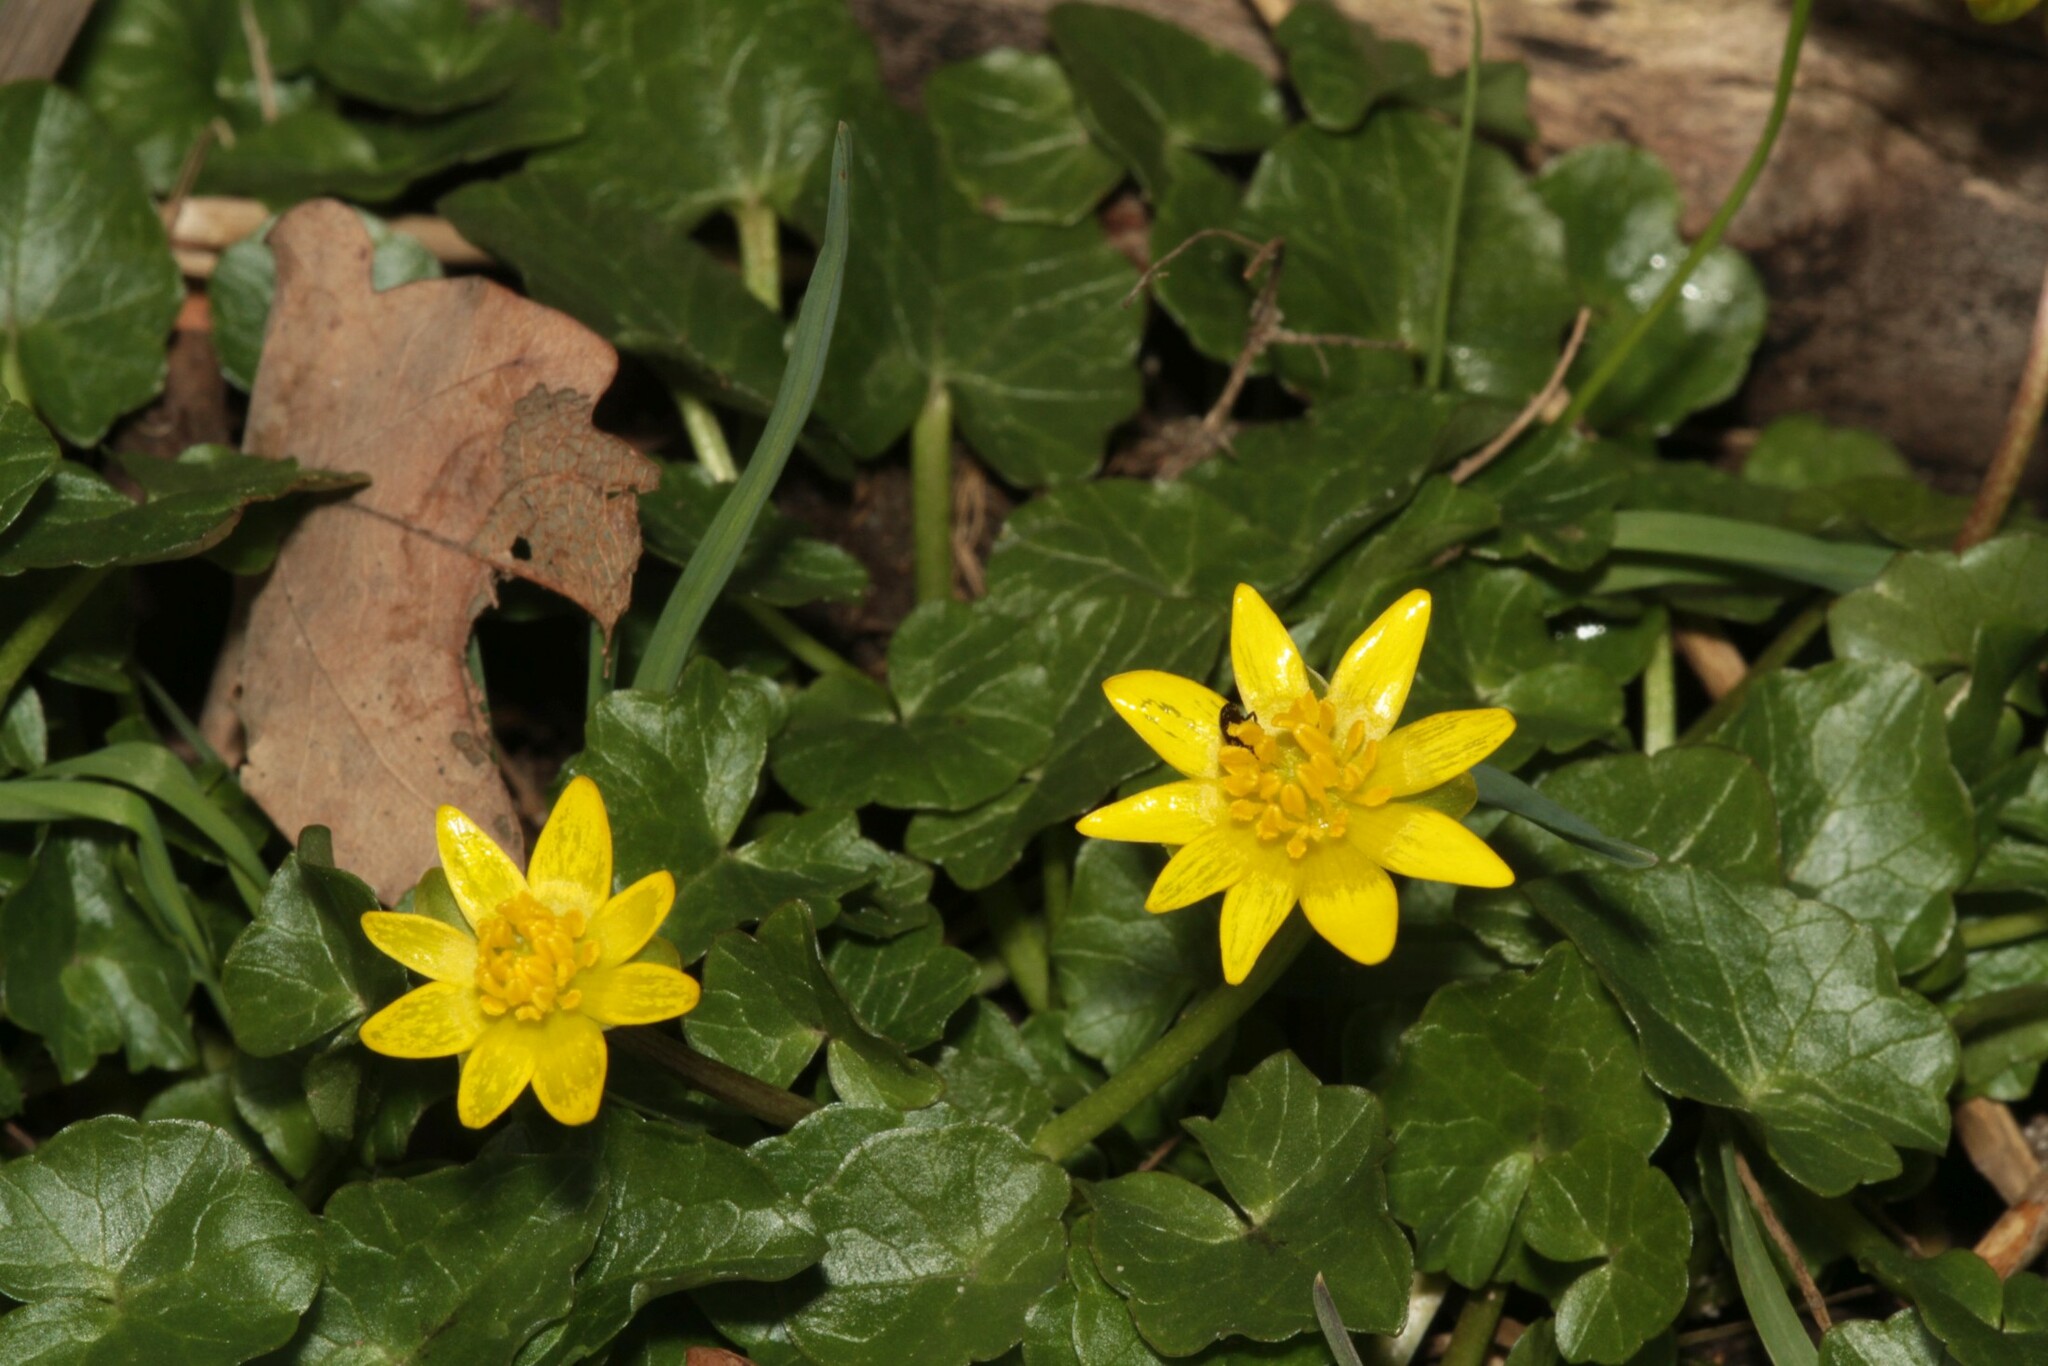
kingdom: Plantae
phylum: Tracheophyta
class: Magnoliopsida
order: Ranunculales
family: Ranunculaceae
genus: Ficaria
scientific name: Ficaria verna
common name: Lesser celandine
